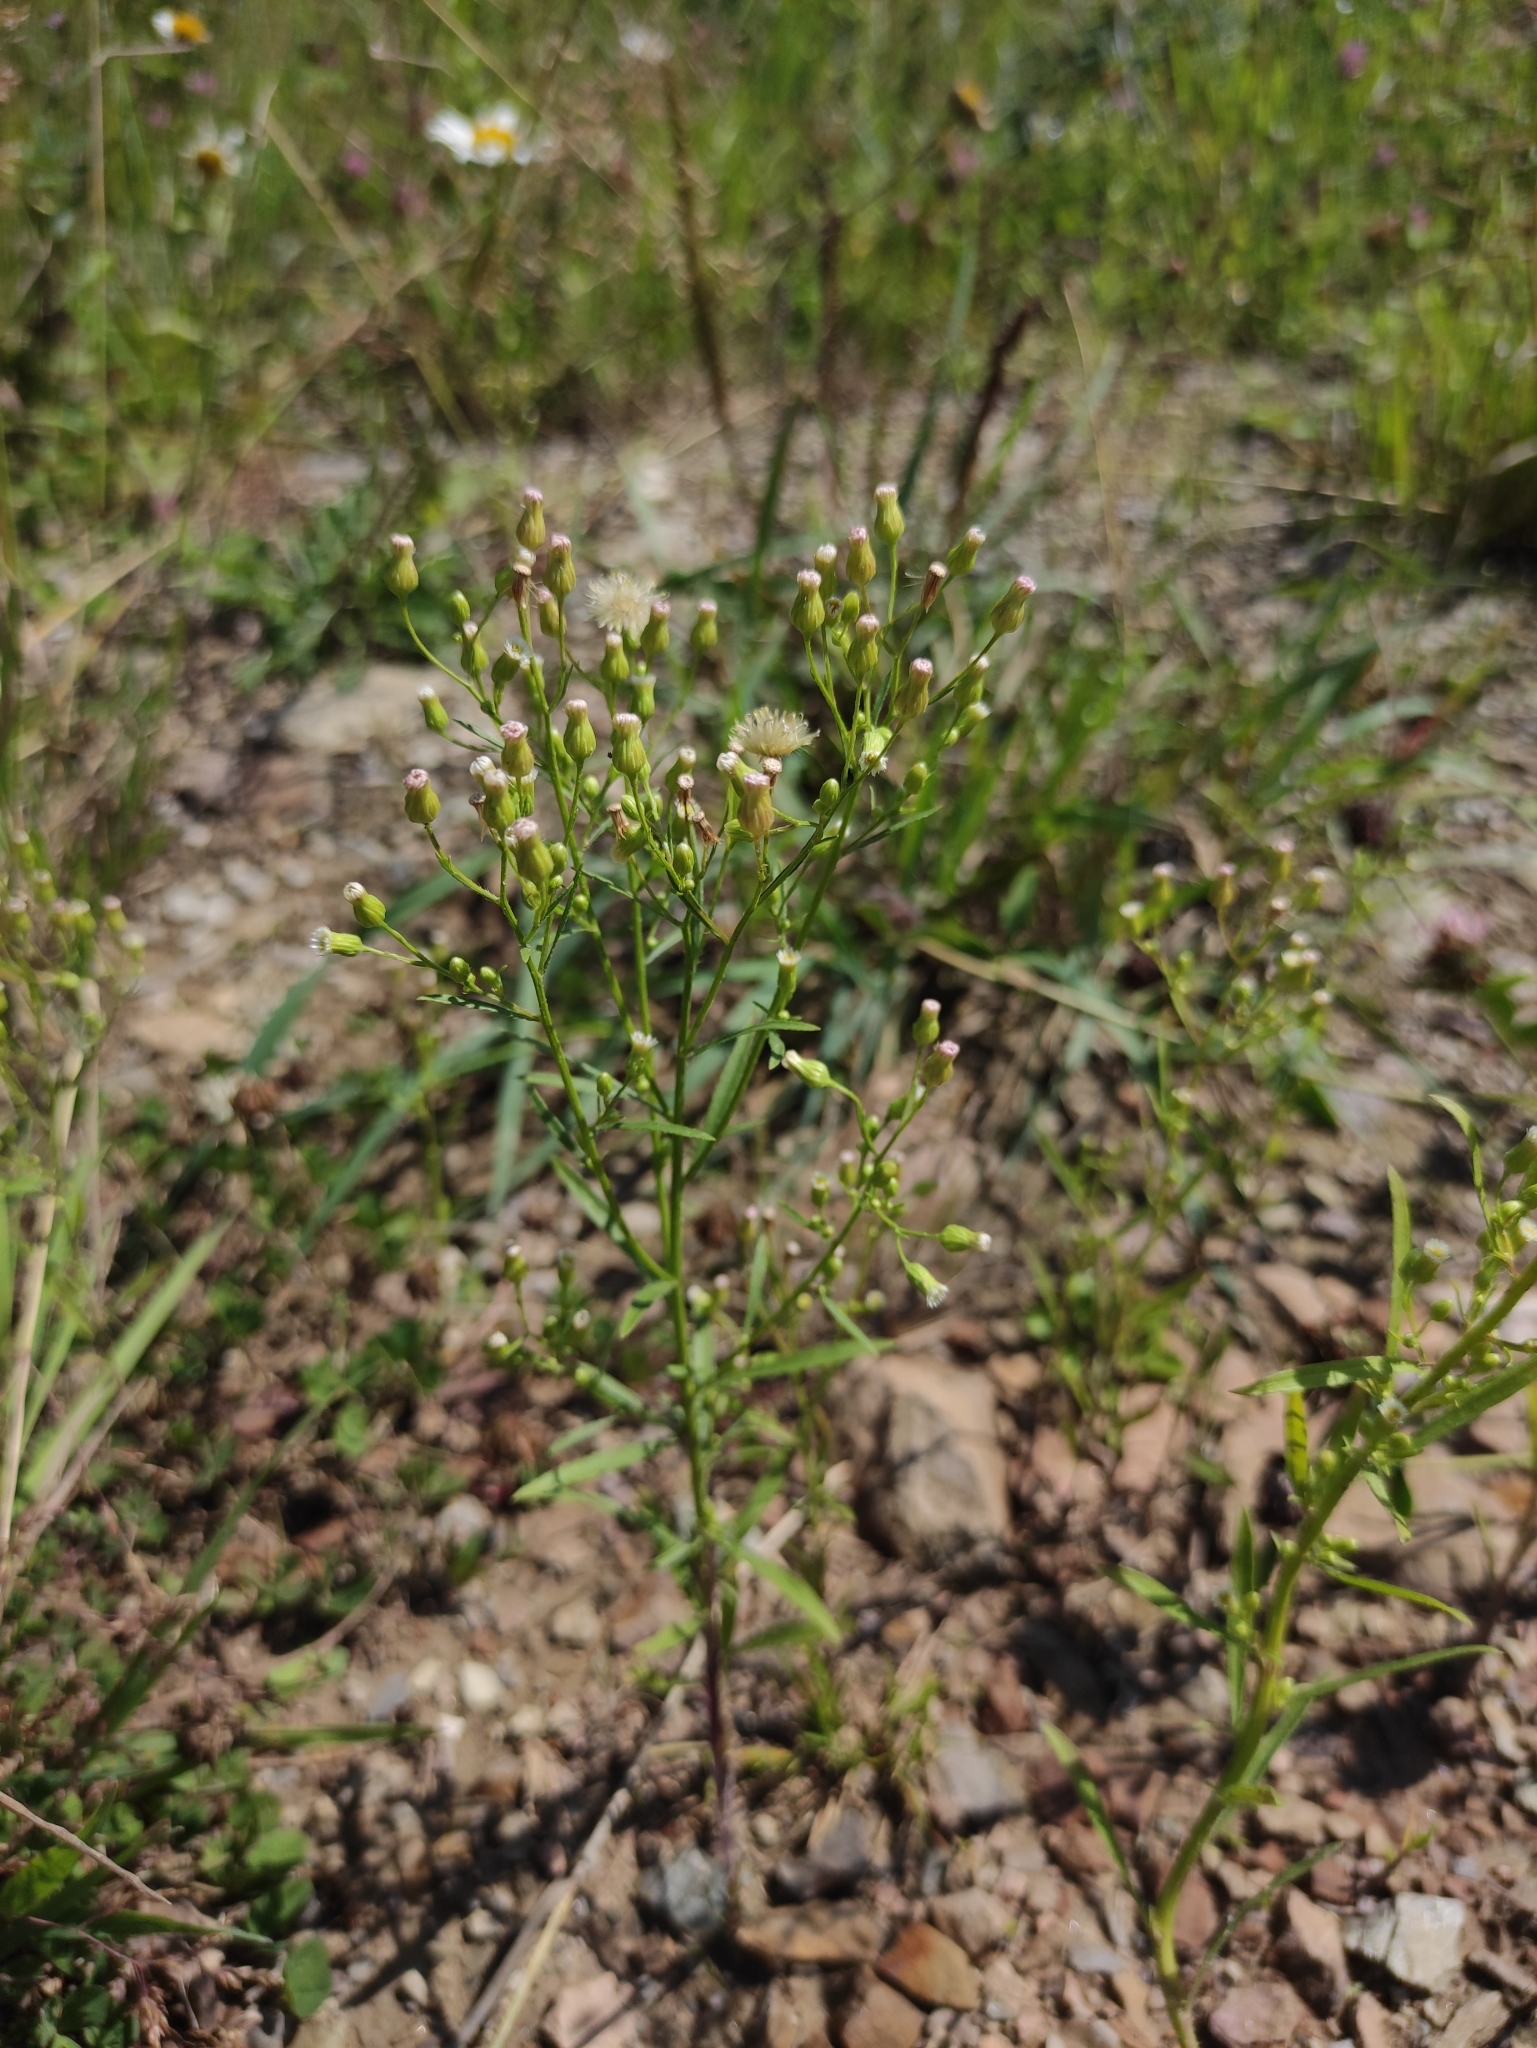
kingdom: Plantae
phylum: Tracheophyta
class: Magnoliopsida
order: Asterales
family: Asteraceae
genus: Erigeron
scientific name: Erigeron canadensis
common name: Canadian fleabane
